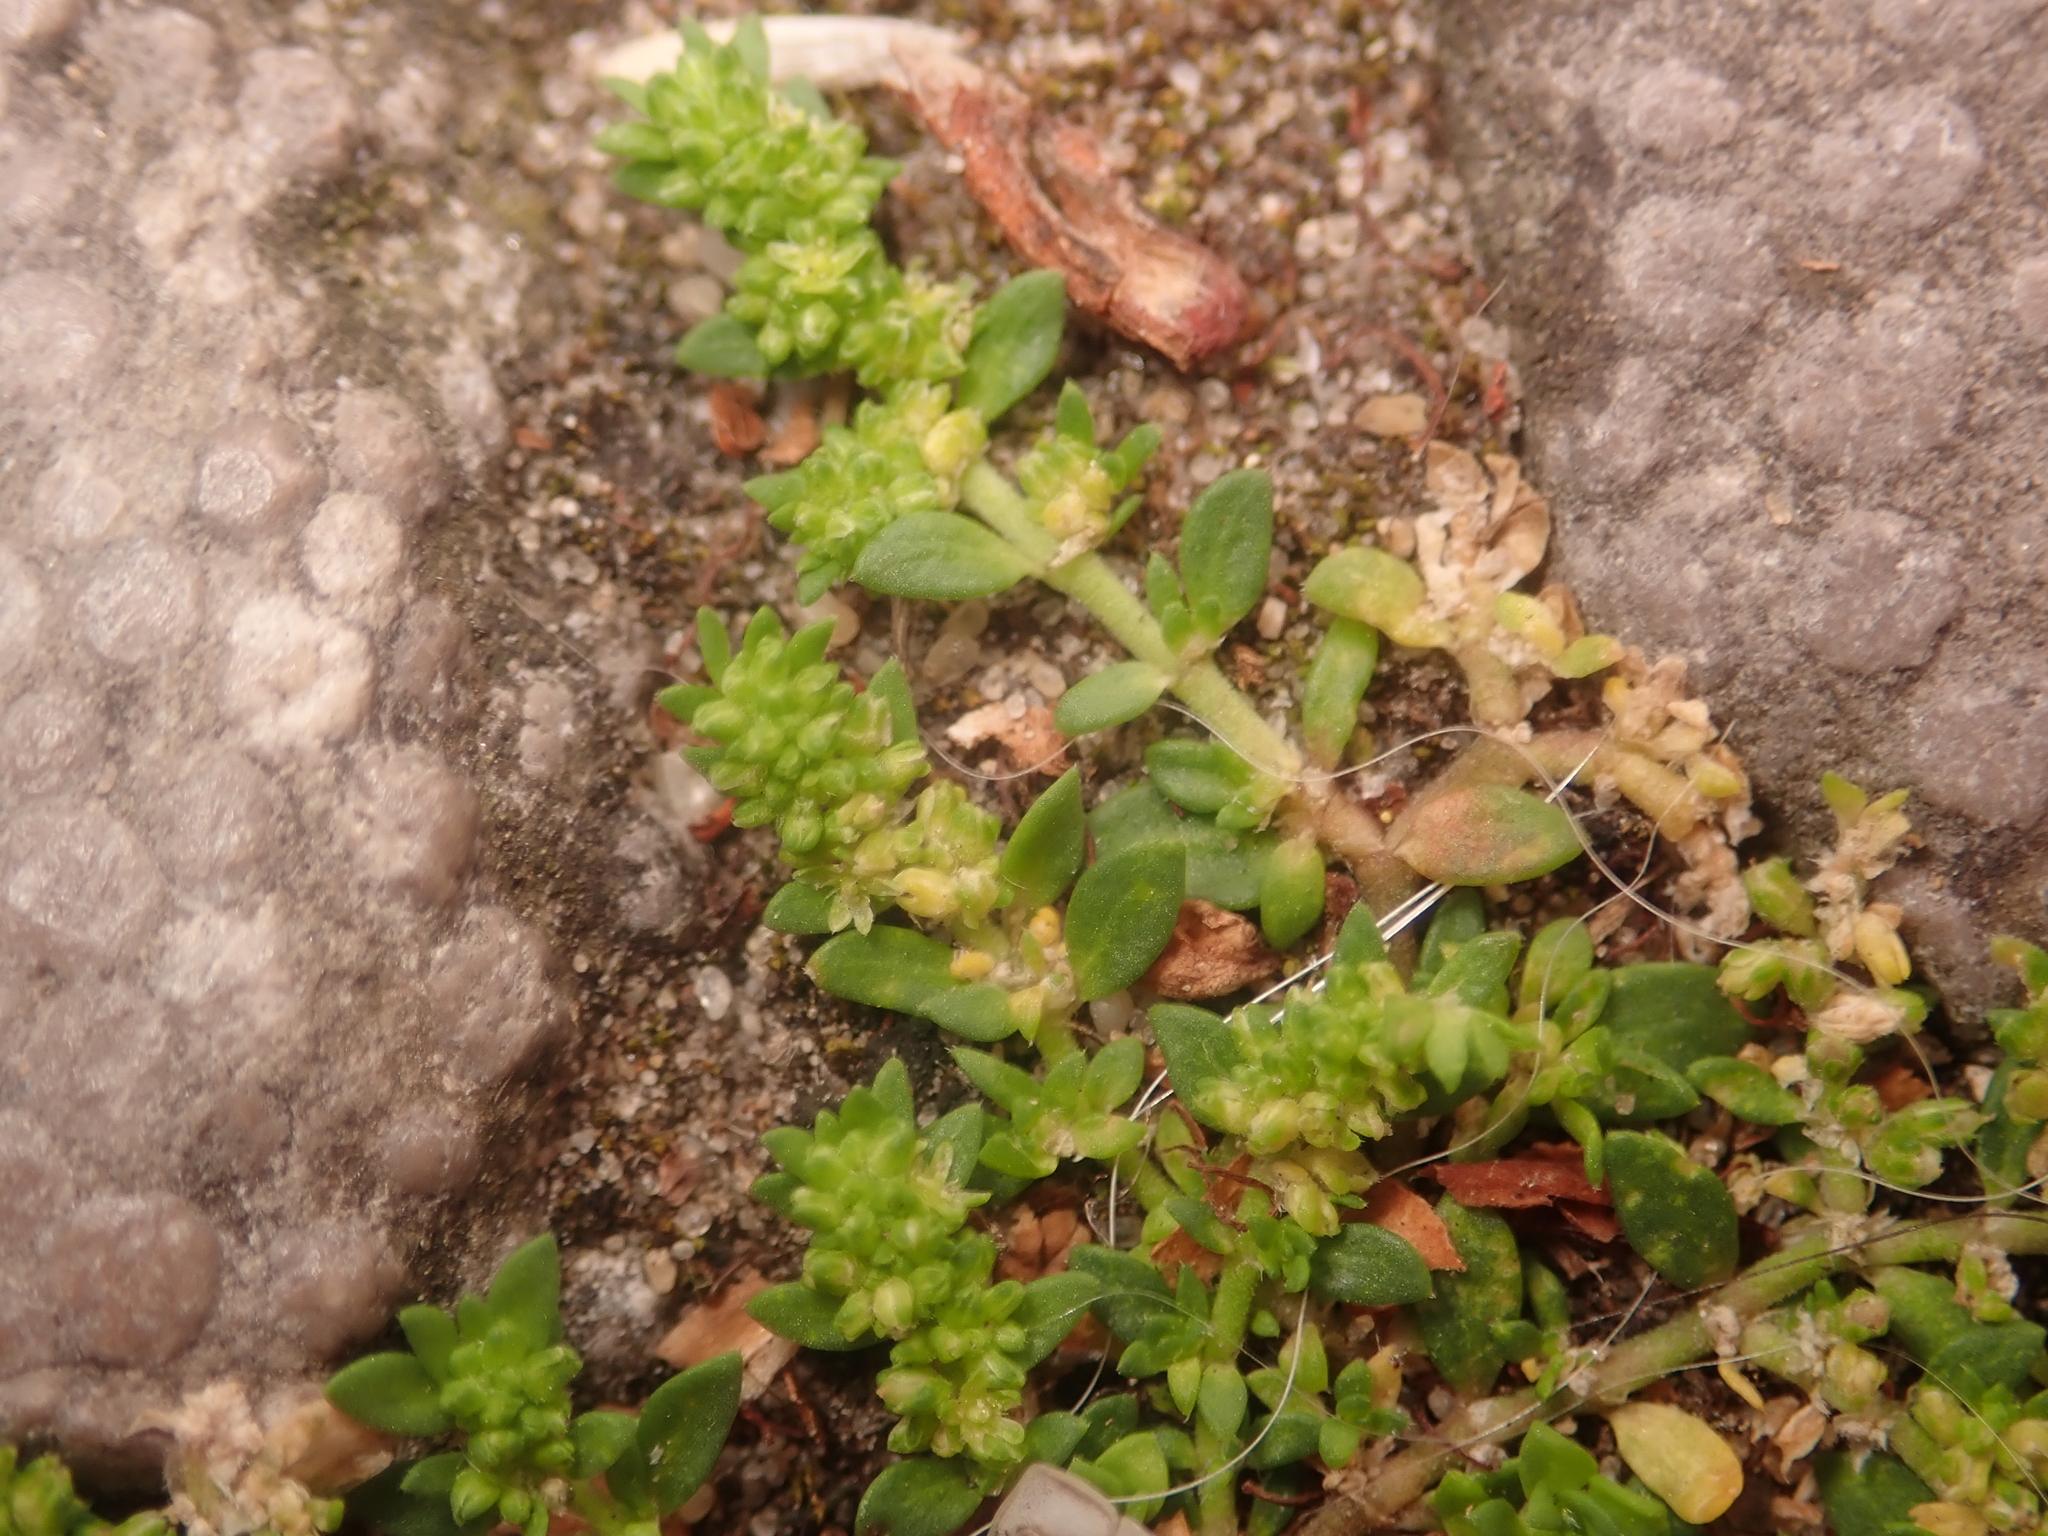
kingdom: Plantae
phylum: Tracheophyta
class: Magnoliopsida
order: Caryophyllales
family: Caryophyllaceae
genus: Herniaria
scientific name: Herniaria glabra
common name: Smooth rupturewort
